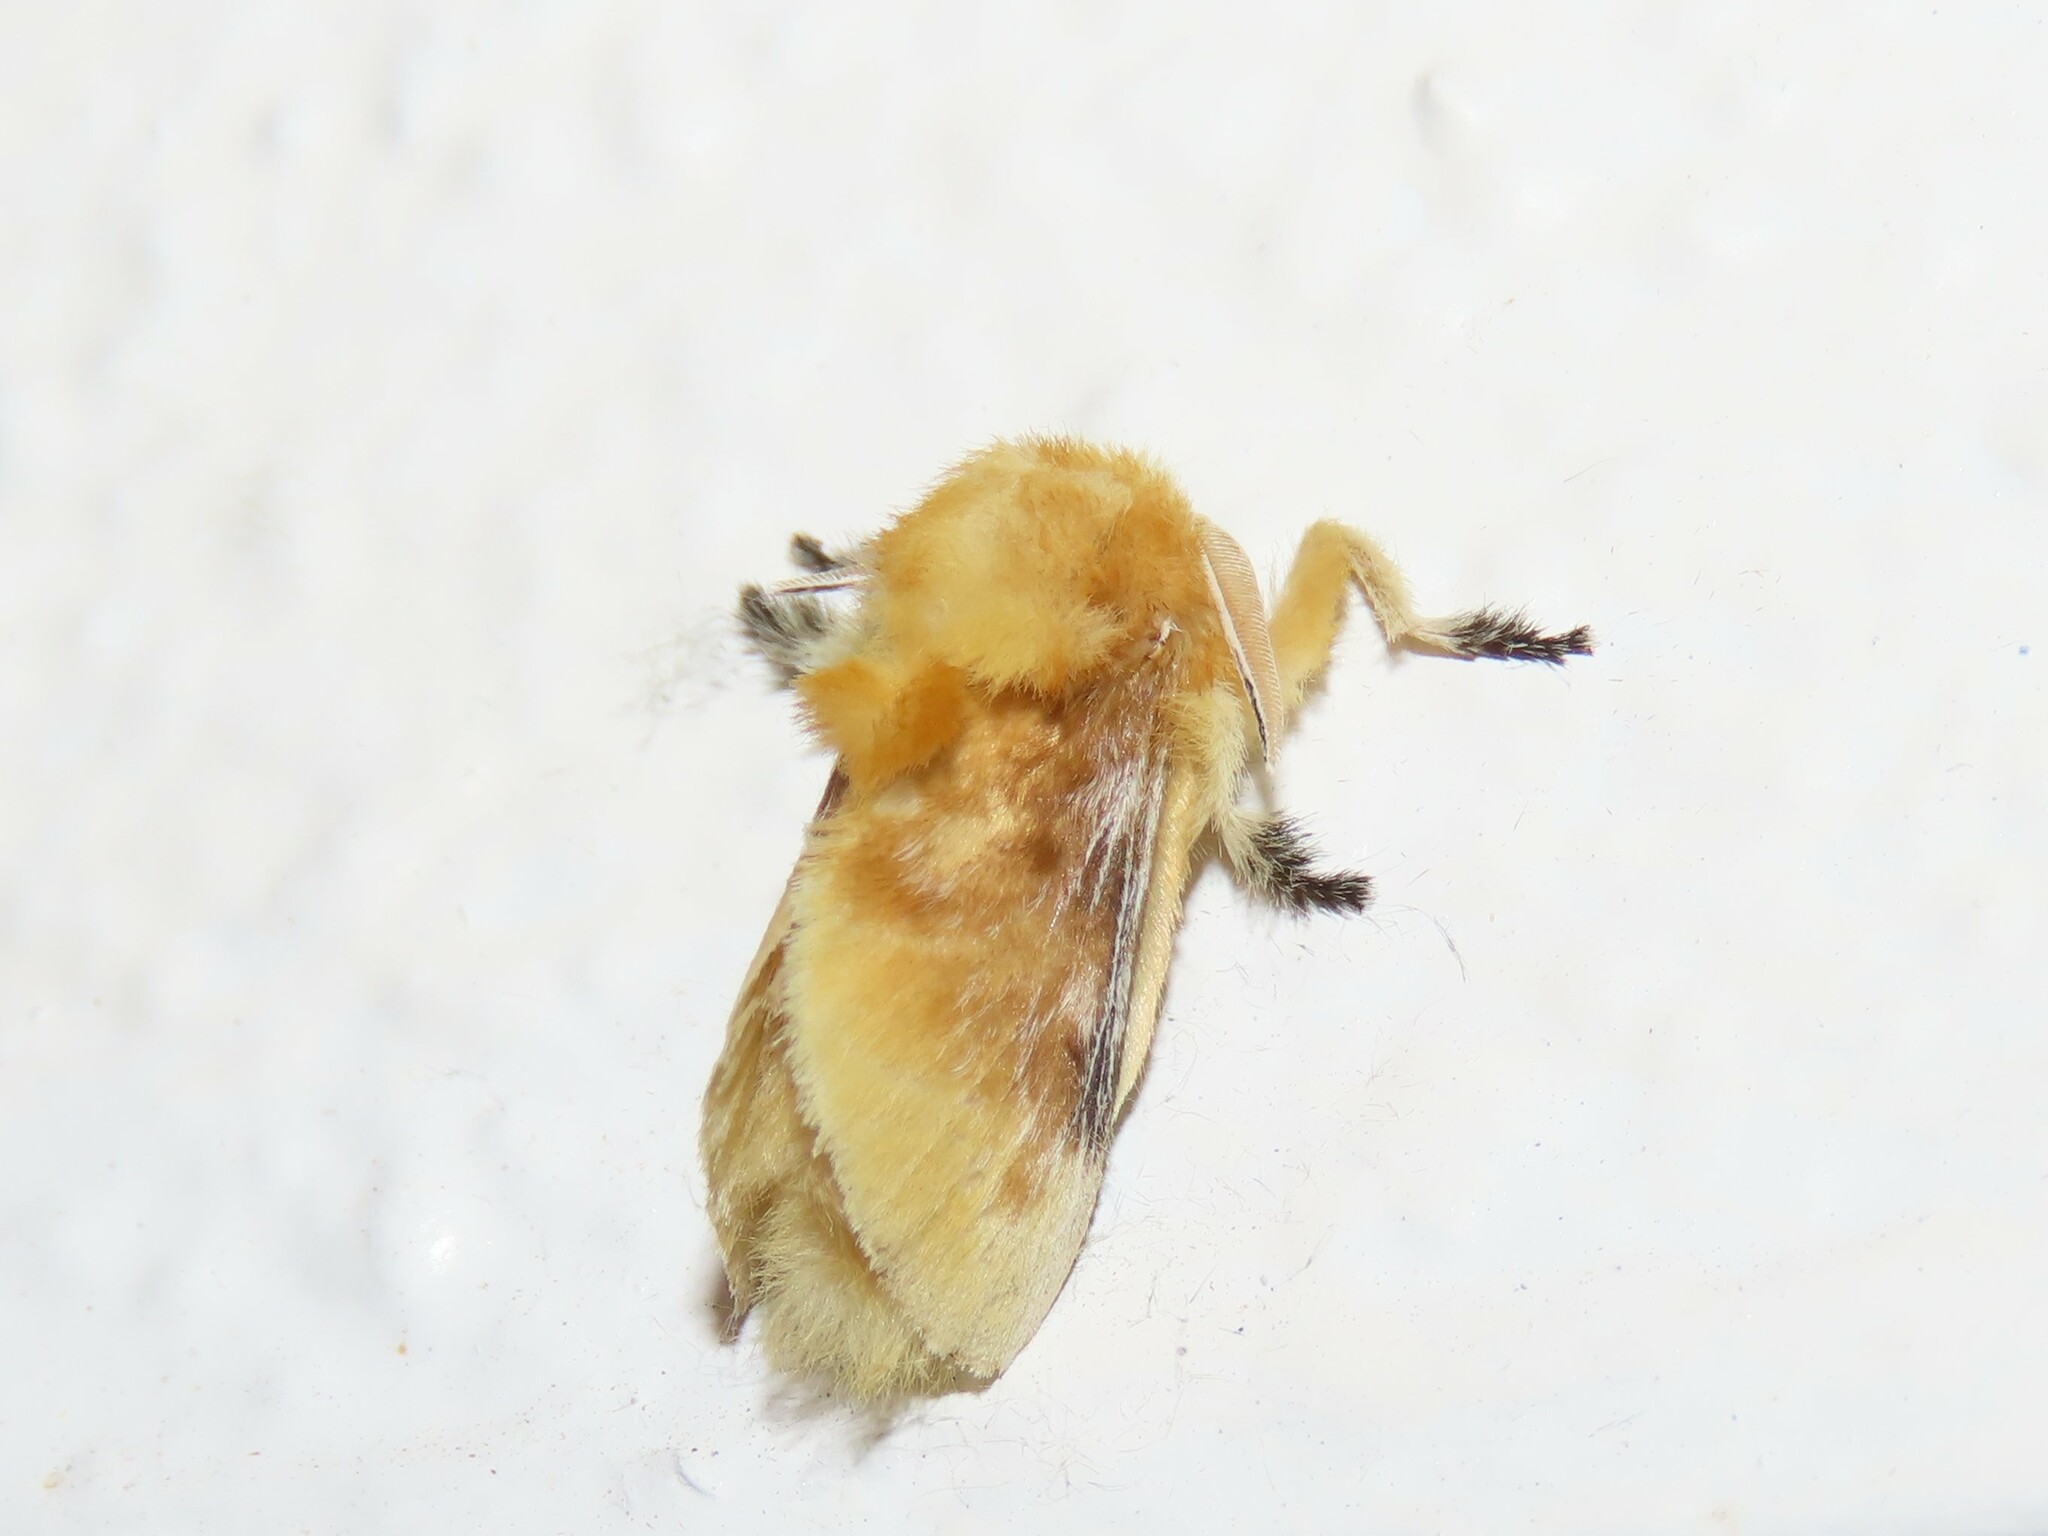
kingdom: Animalia
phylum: Arthropoda
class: Insecta
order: Lepidoptera
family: Megalopygidae
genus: Megalopyge
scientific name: Megalopyge opercularis
